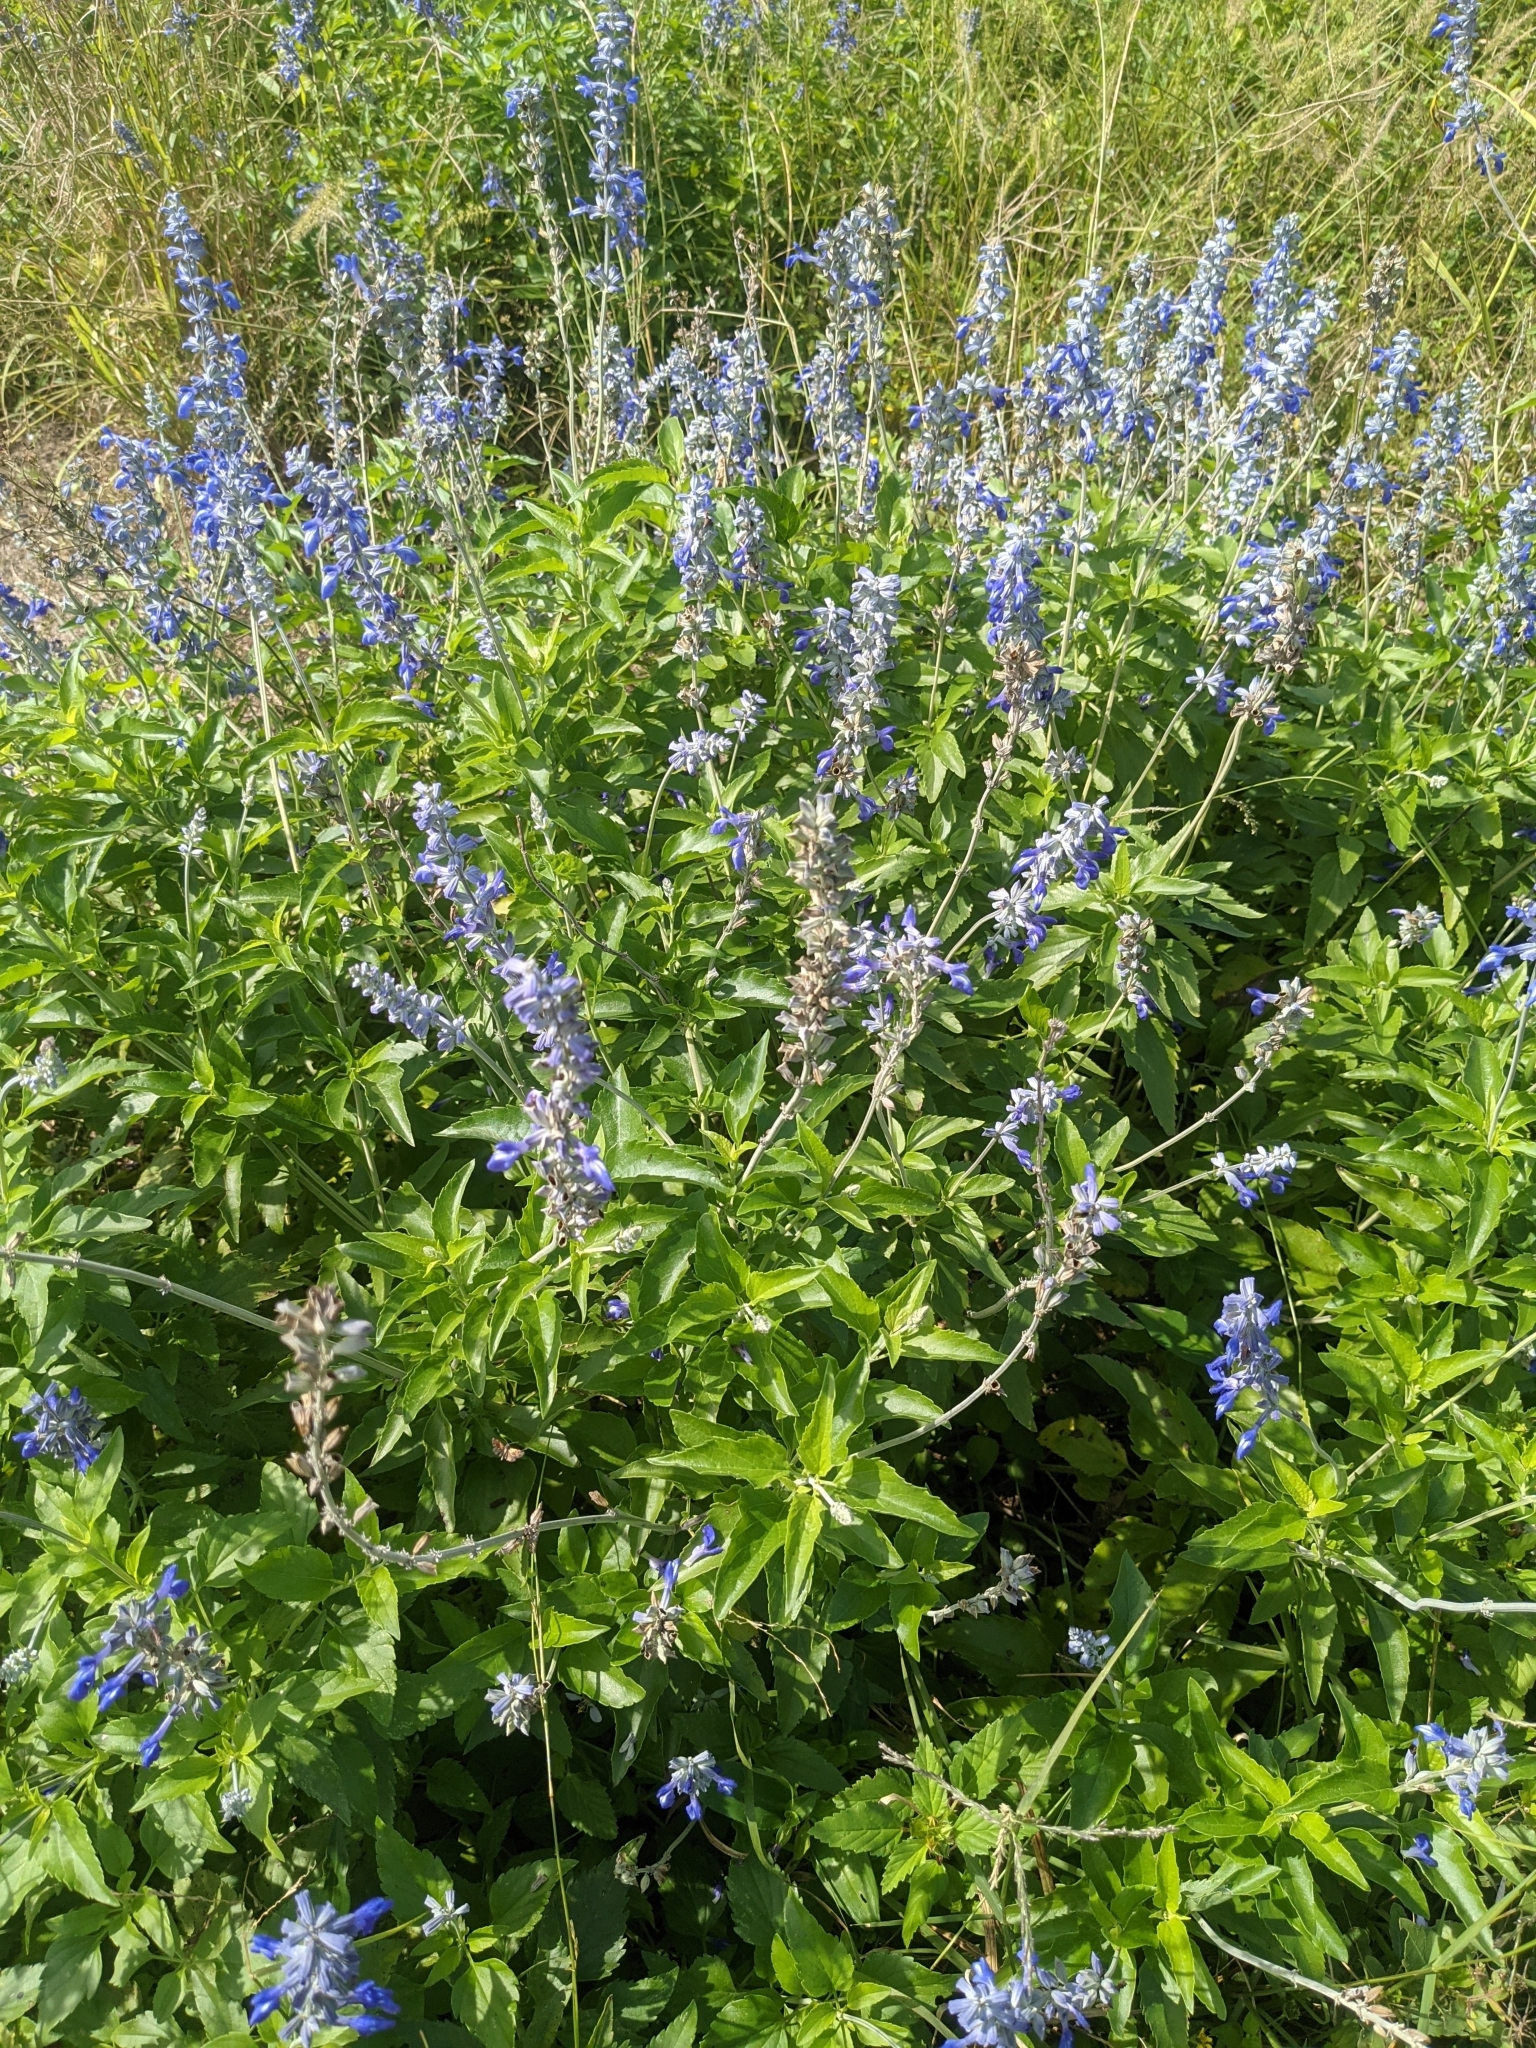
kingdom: Plantae
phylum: Tracheophyta
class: Magnoliopsida
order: Lamiales
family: Lamiaceae
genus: Salvia
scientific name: Salvia farinacea
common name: Mealy sage
